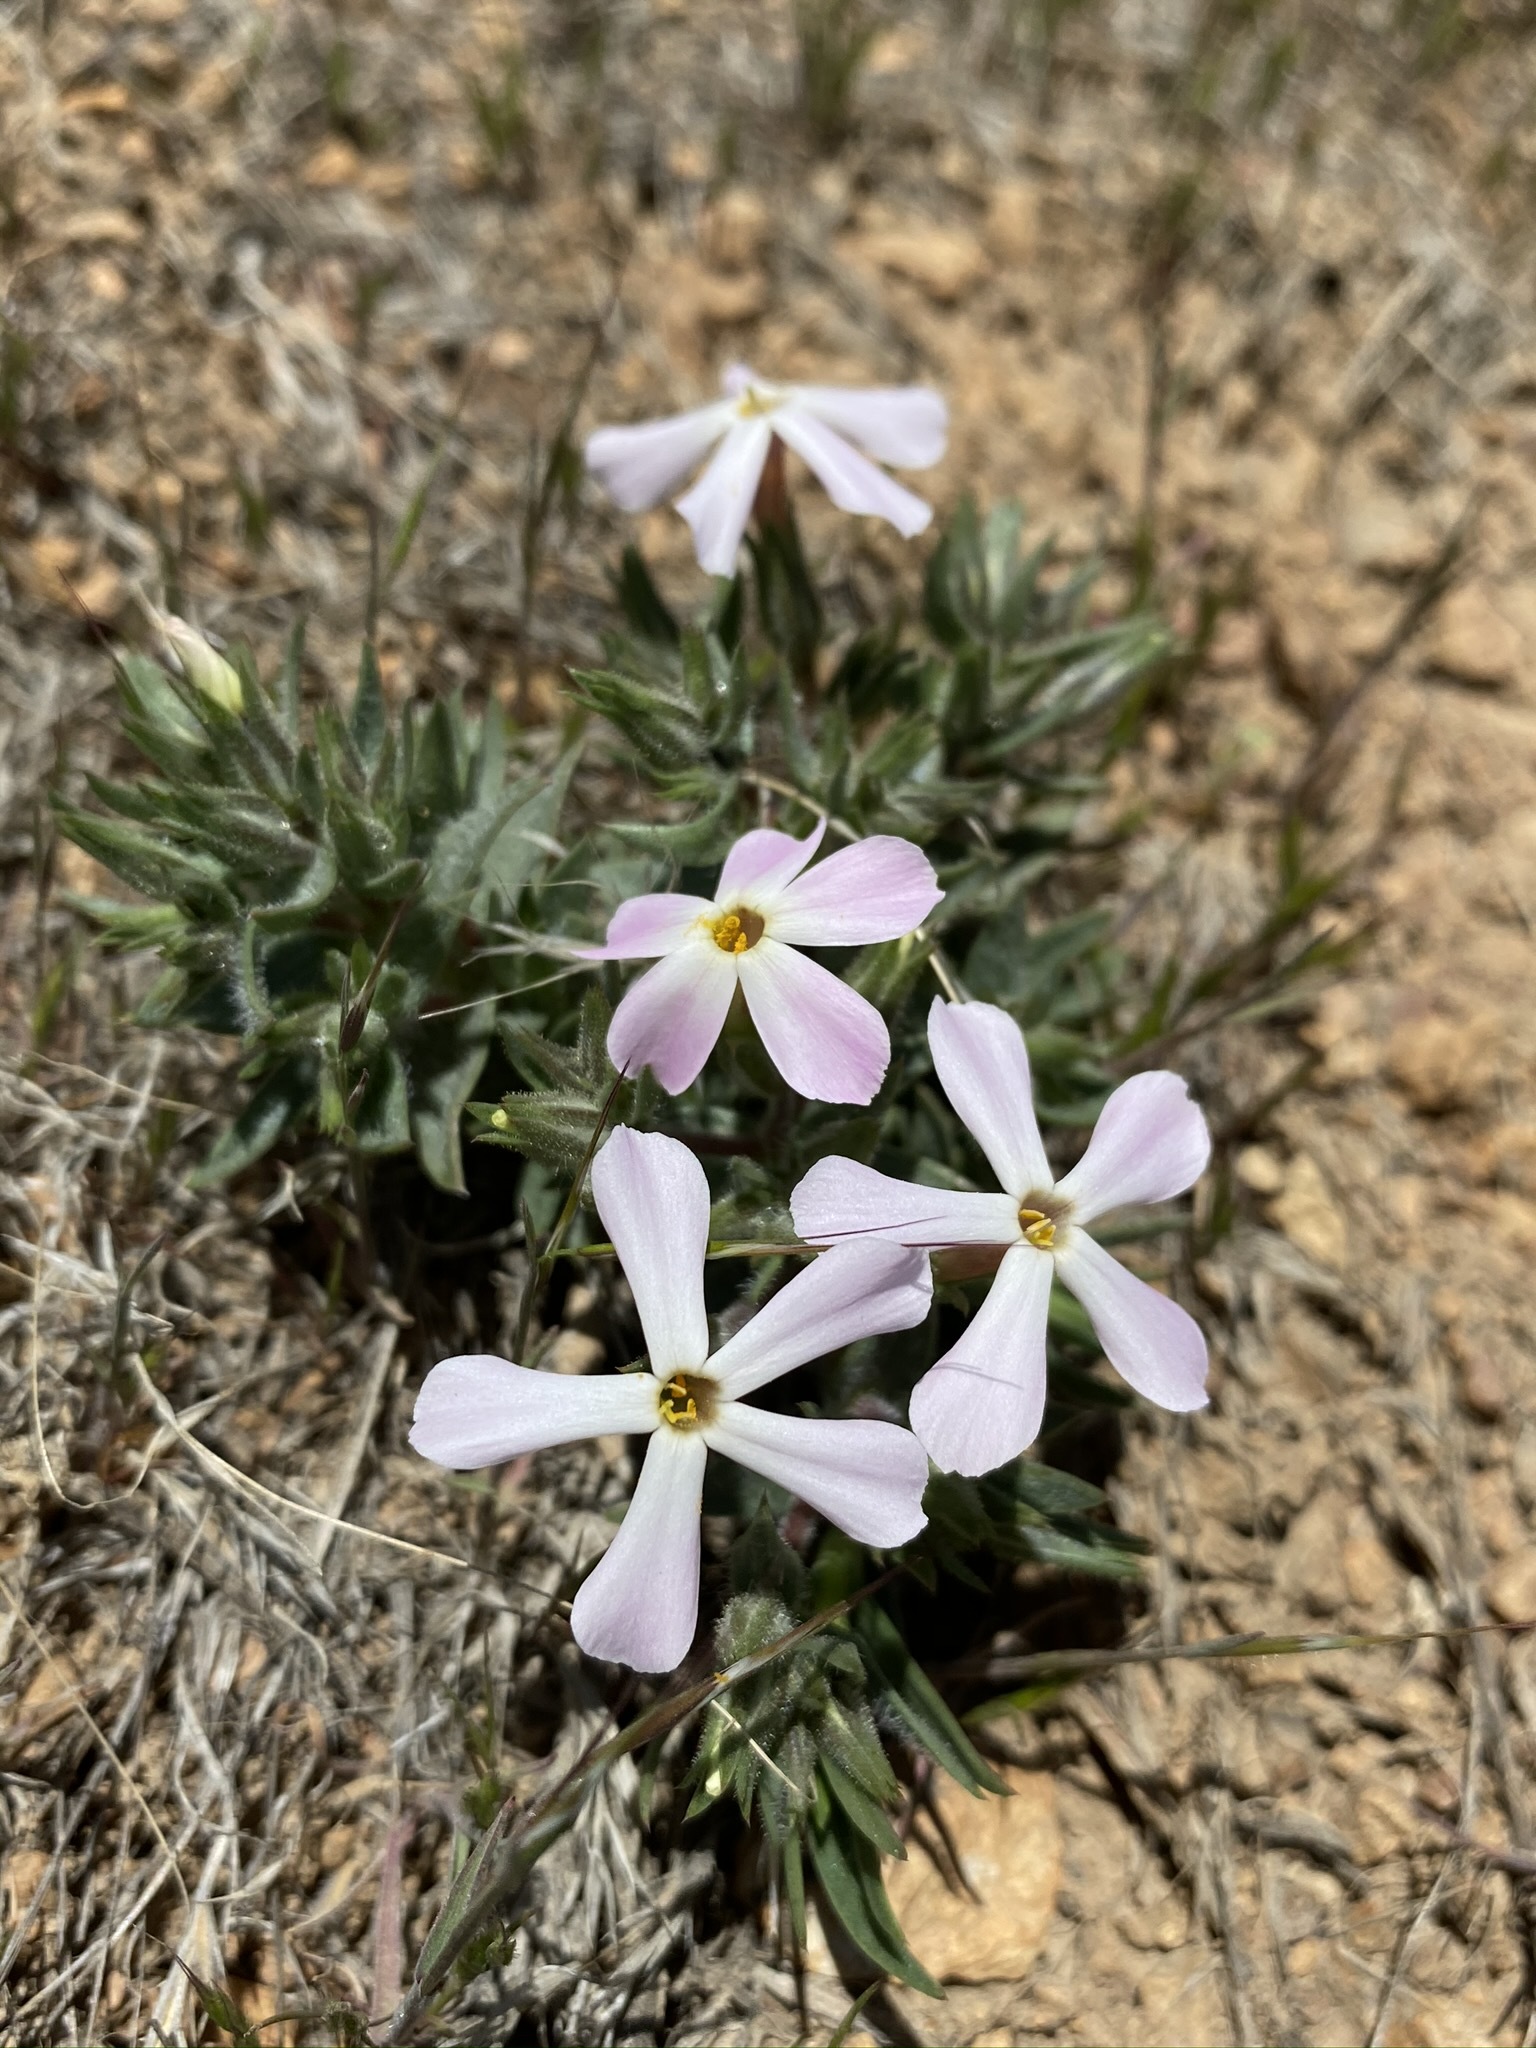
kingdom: Plantae
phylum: Tracheophyta
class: Magnoliopsida
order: Ericales
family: Polemoniaceae
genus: Phlox
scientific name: Phlox longifolia
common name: Longleaf phlox
